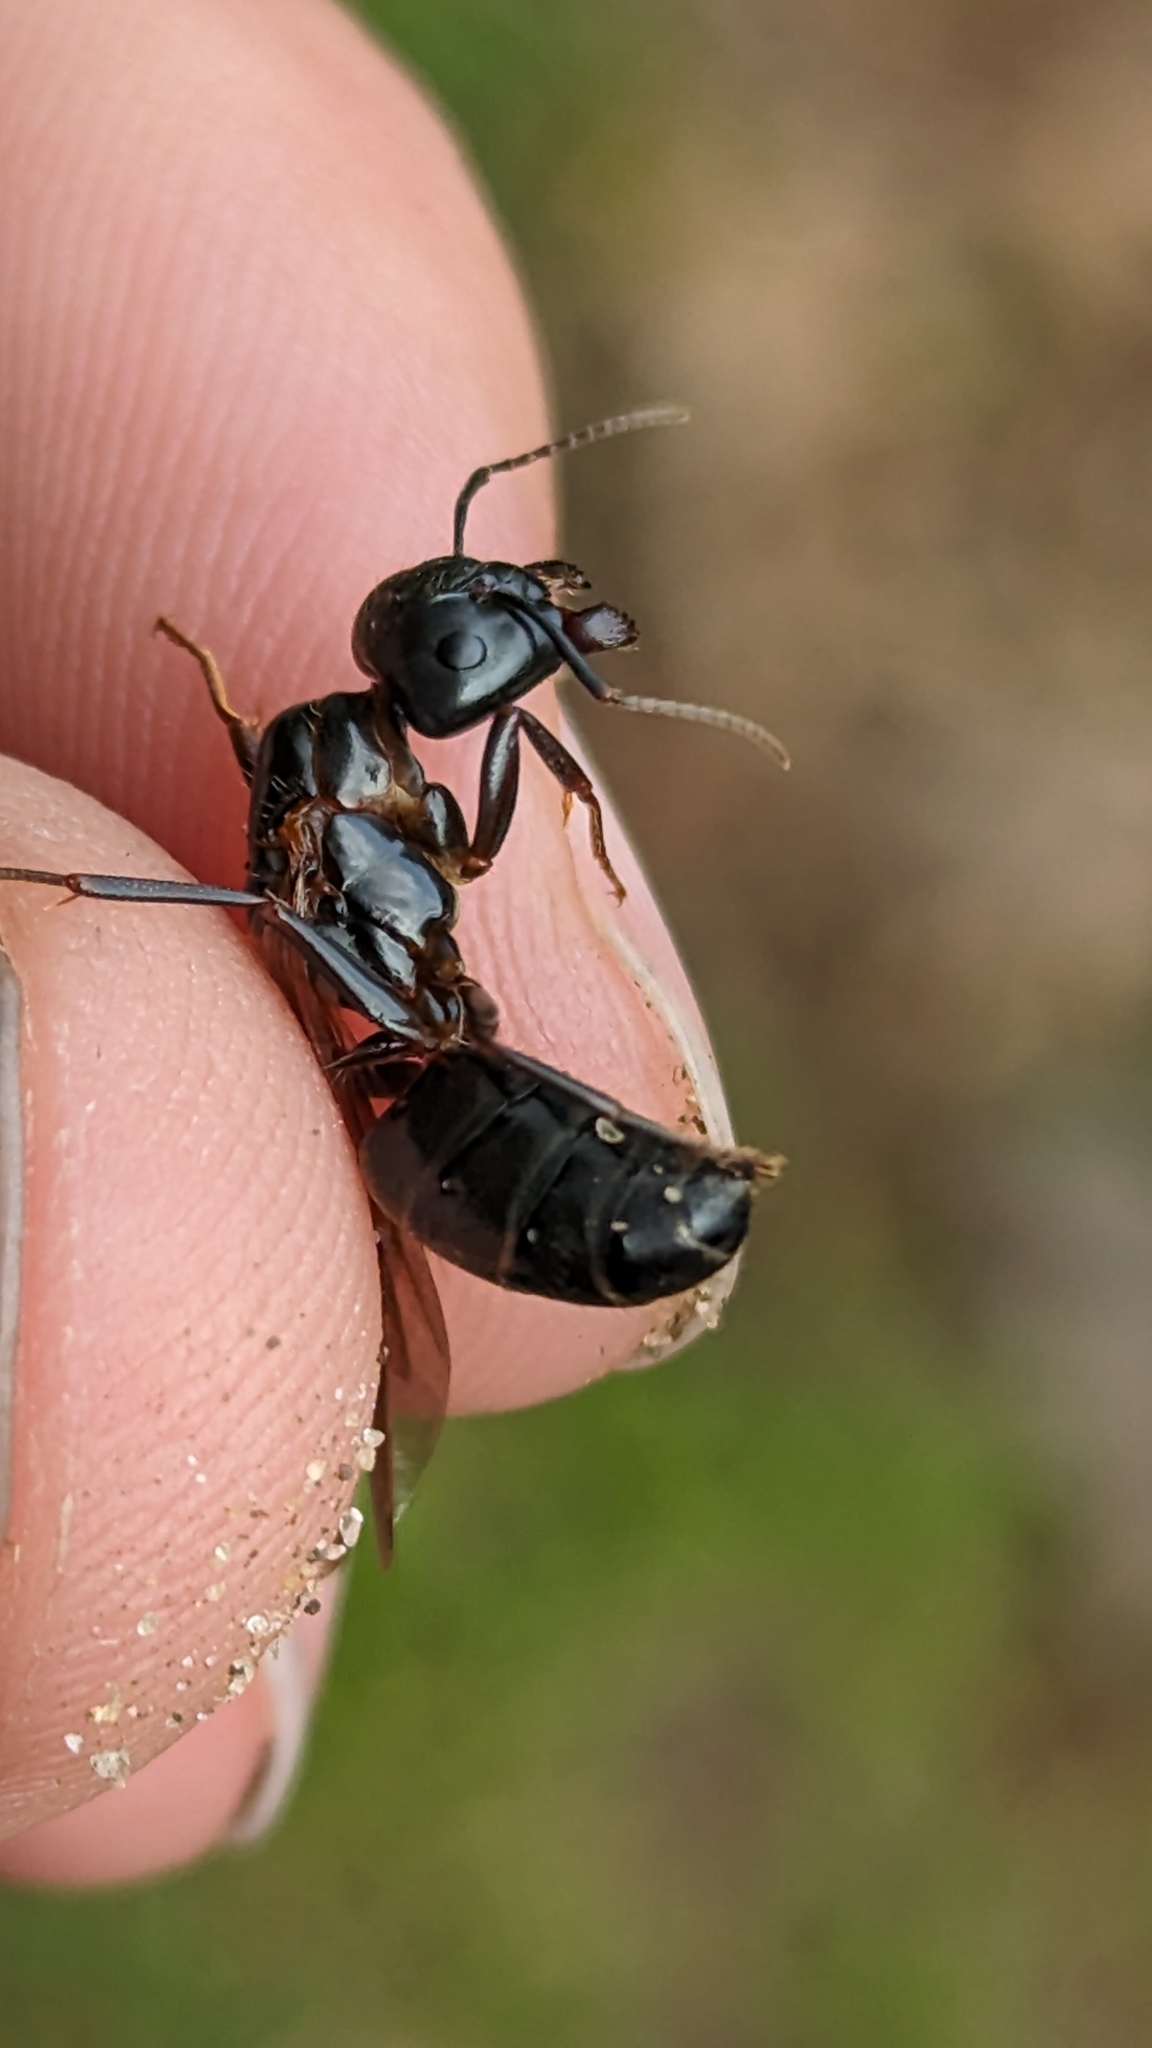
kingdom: Animalia
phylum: Arthropoda
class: Insecta
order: Hymenoptera
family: Formicidae
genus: Camponotus
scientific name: Camponotus pennsylvanicus
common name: Black carpenter ant
